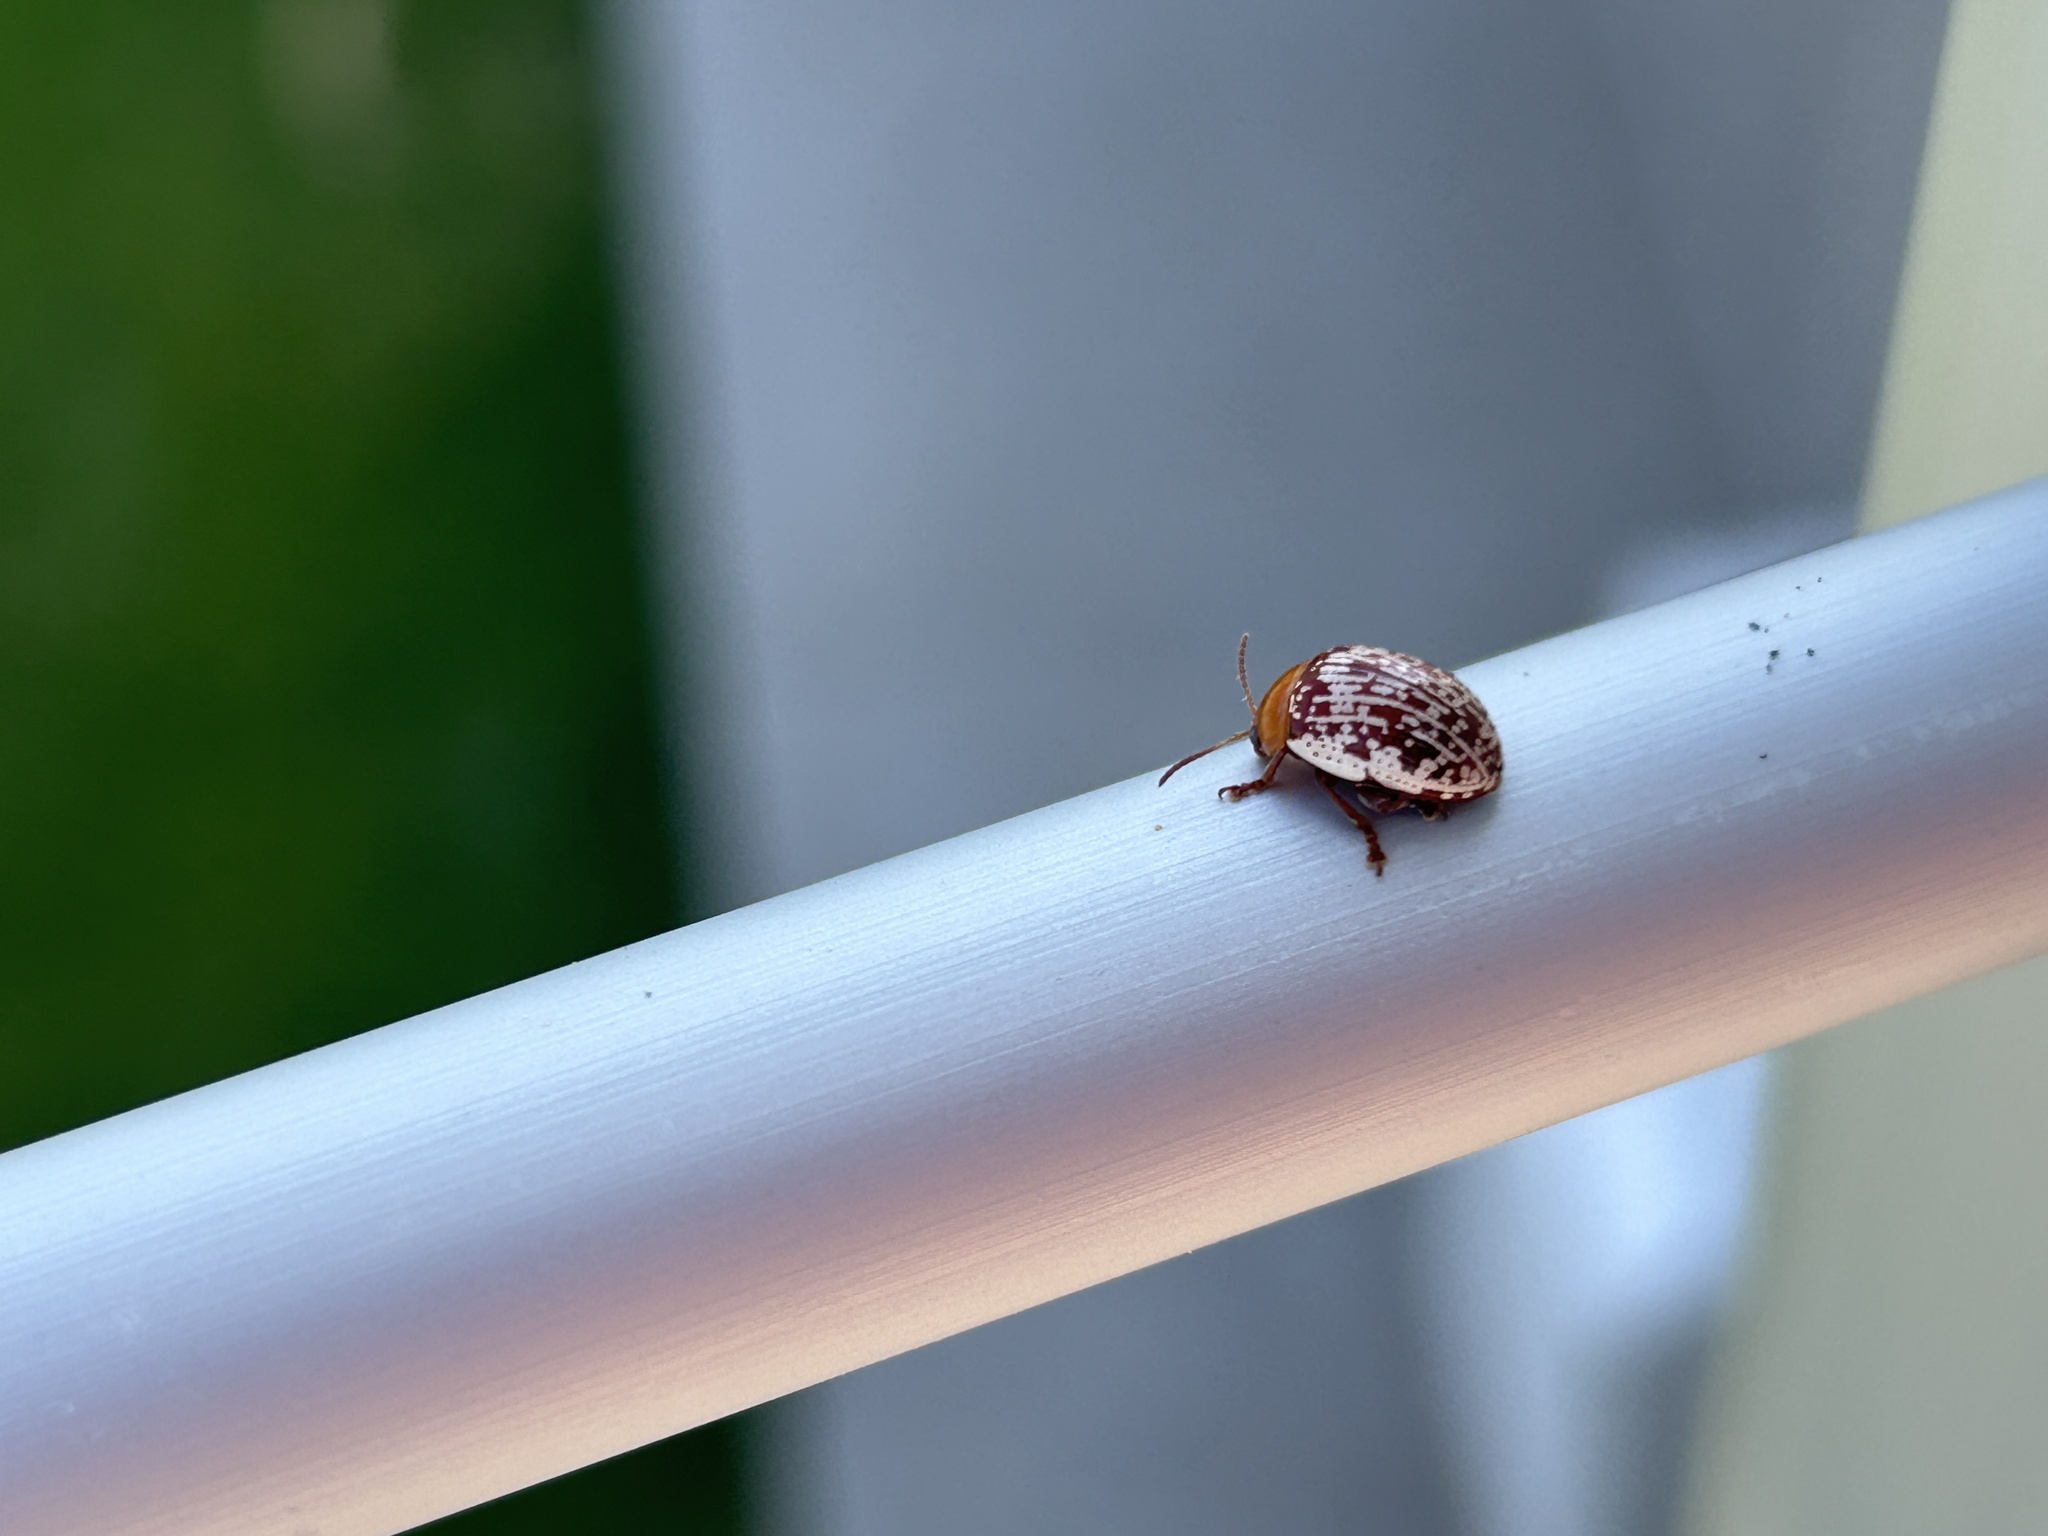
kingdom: Animalia
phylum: Arthropoda
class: Insecta
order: Coleoptera
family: Chrysomelidae
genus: Blepharida
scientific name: Blepharida rhois
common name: Sumac flea beetle
